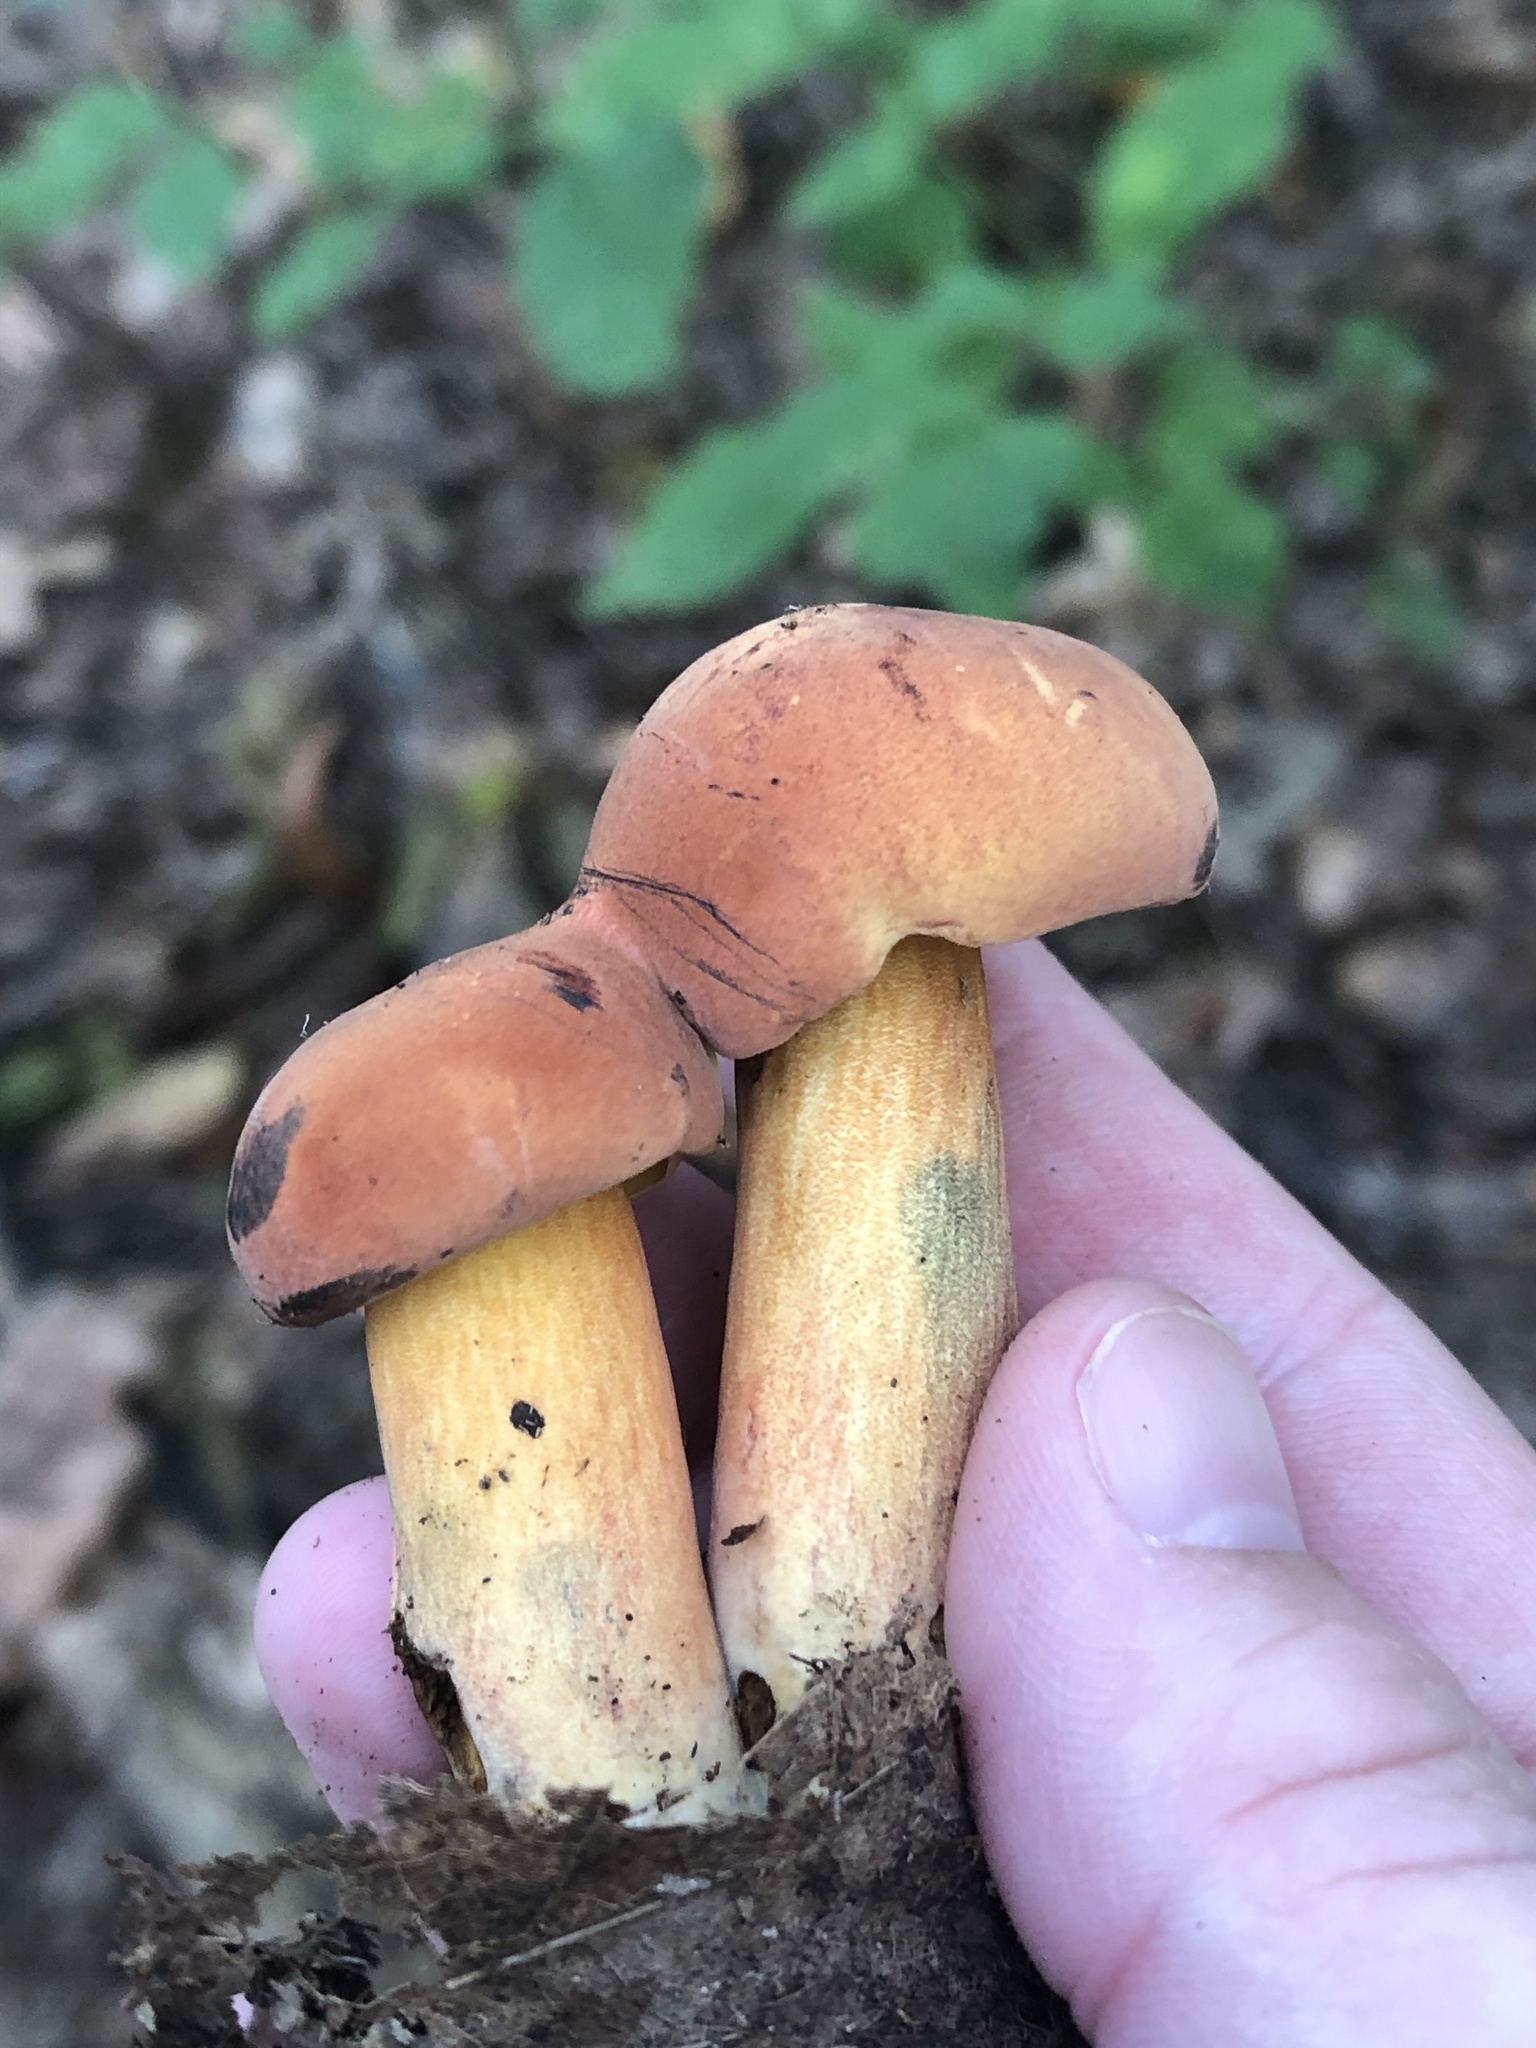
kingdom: Fungi
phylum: Basidiomycota
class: Agaricomycetes
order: Boletales
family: Boletaceae
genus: Boletus
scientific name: Boletus subvelutipes
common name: Red-mouth bolete
